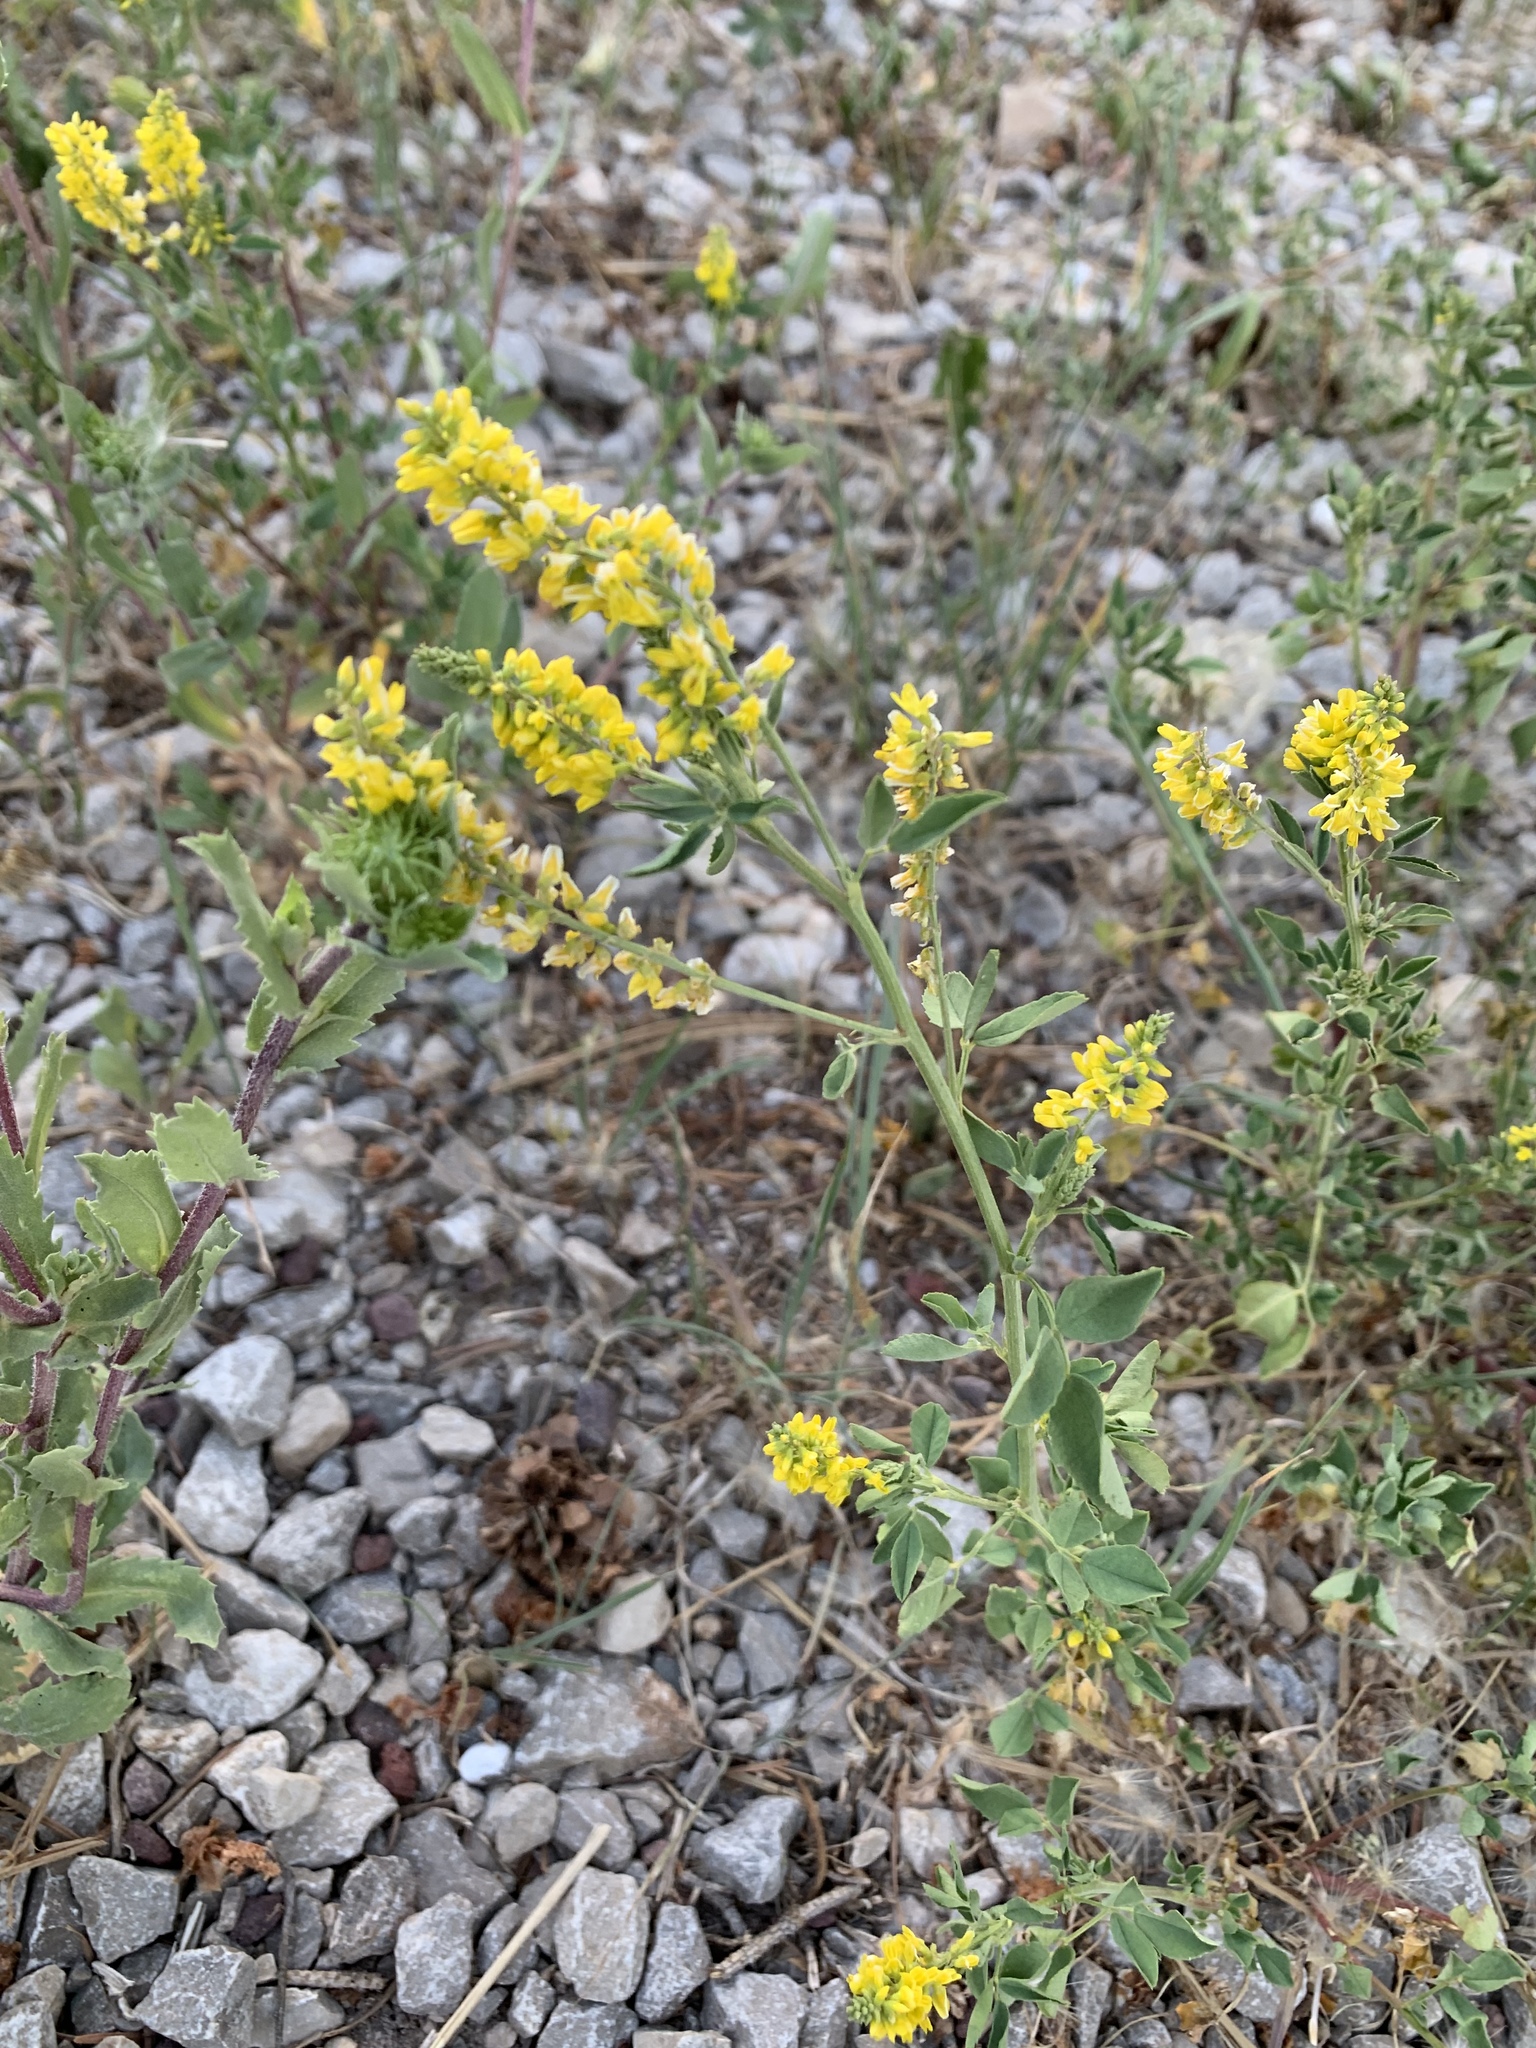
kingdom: Plantae
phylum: Tracheophyta
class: Magnoliopsida
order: Fabales
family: Fabaceae
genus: Melilotus
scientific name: Melilotus officinalis
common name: Sweetclover
